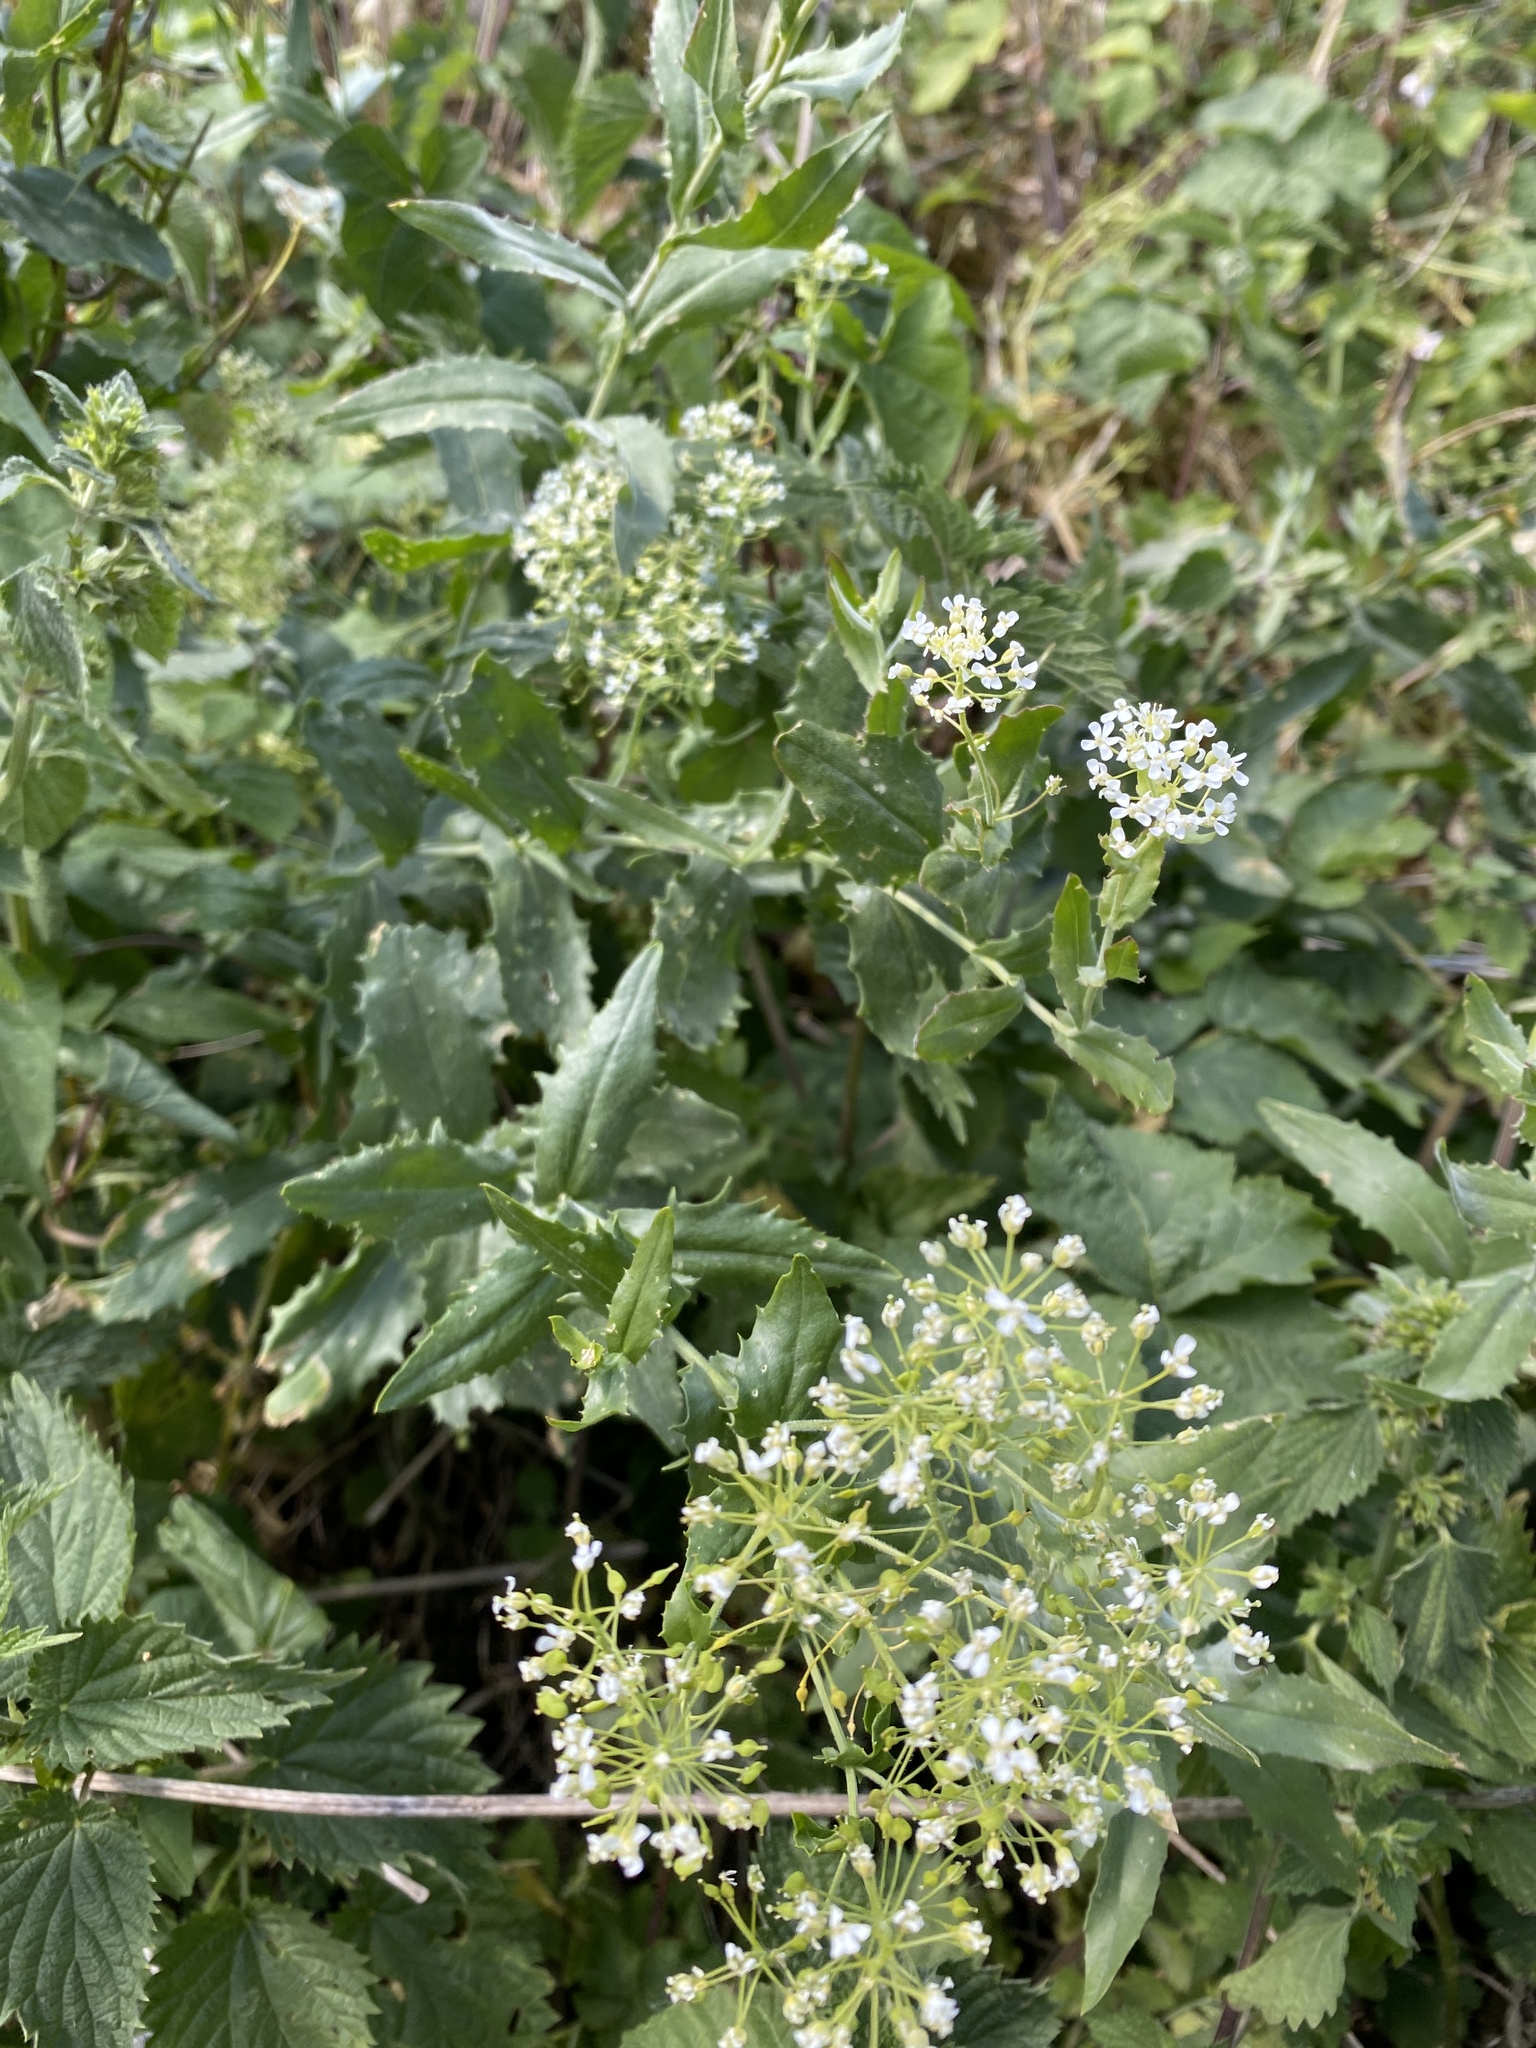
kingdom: Plantae
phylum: Tracheophyta
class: Magnoliopsida
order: Brassicales
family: Brassicaceae
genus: Lepidium
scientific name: Lepidium draba
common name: Hoary cress
